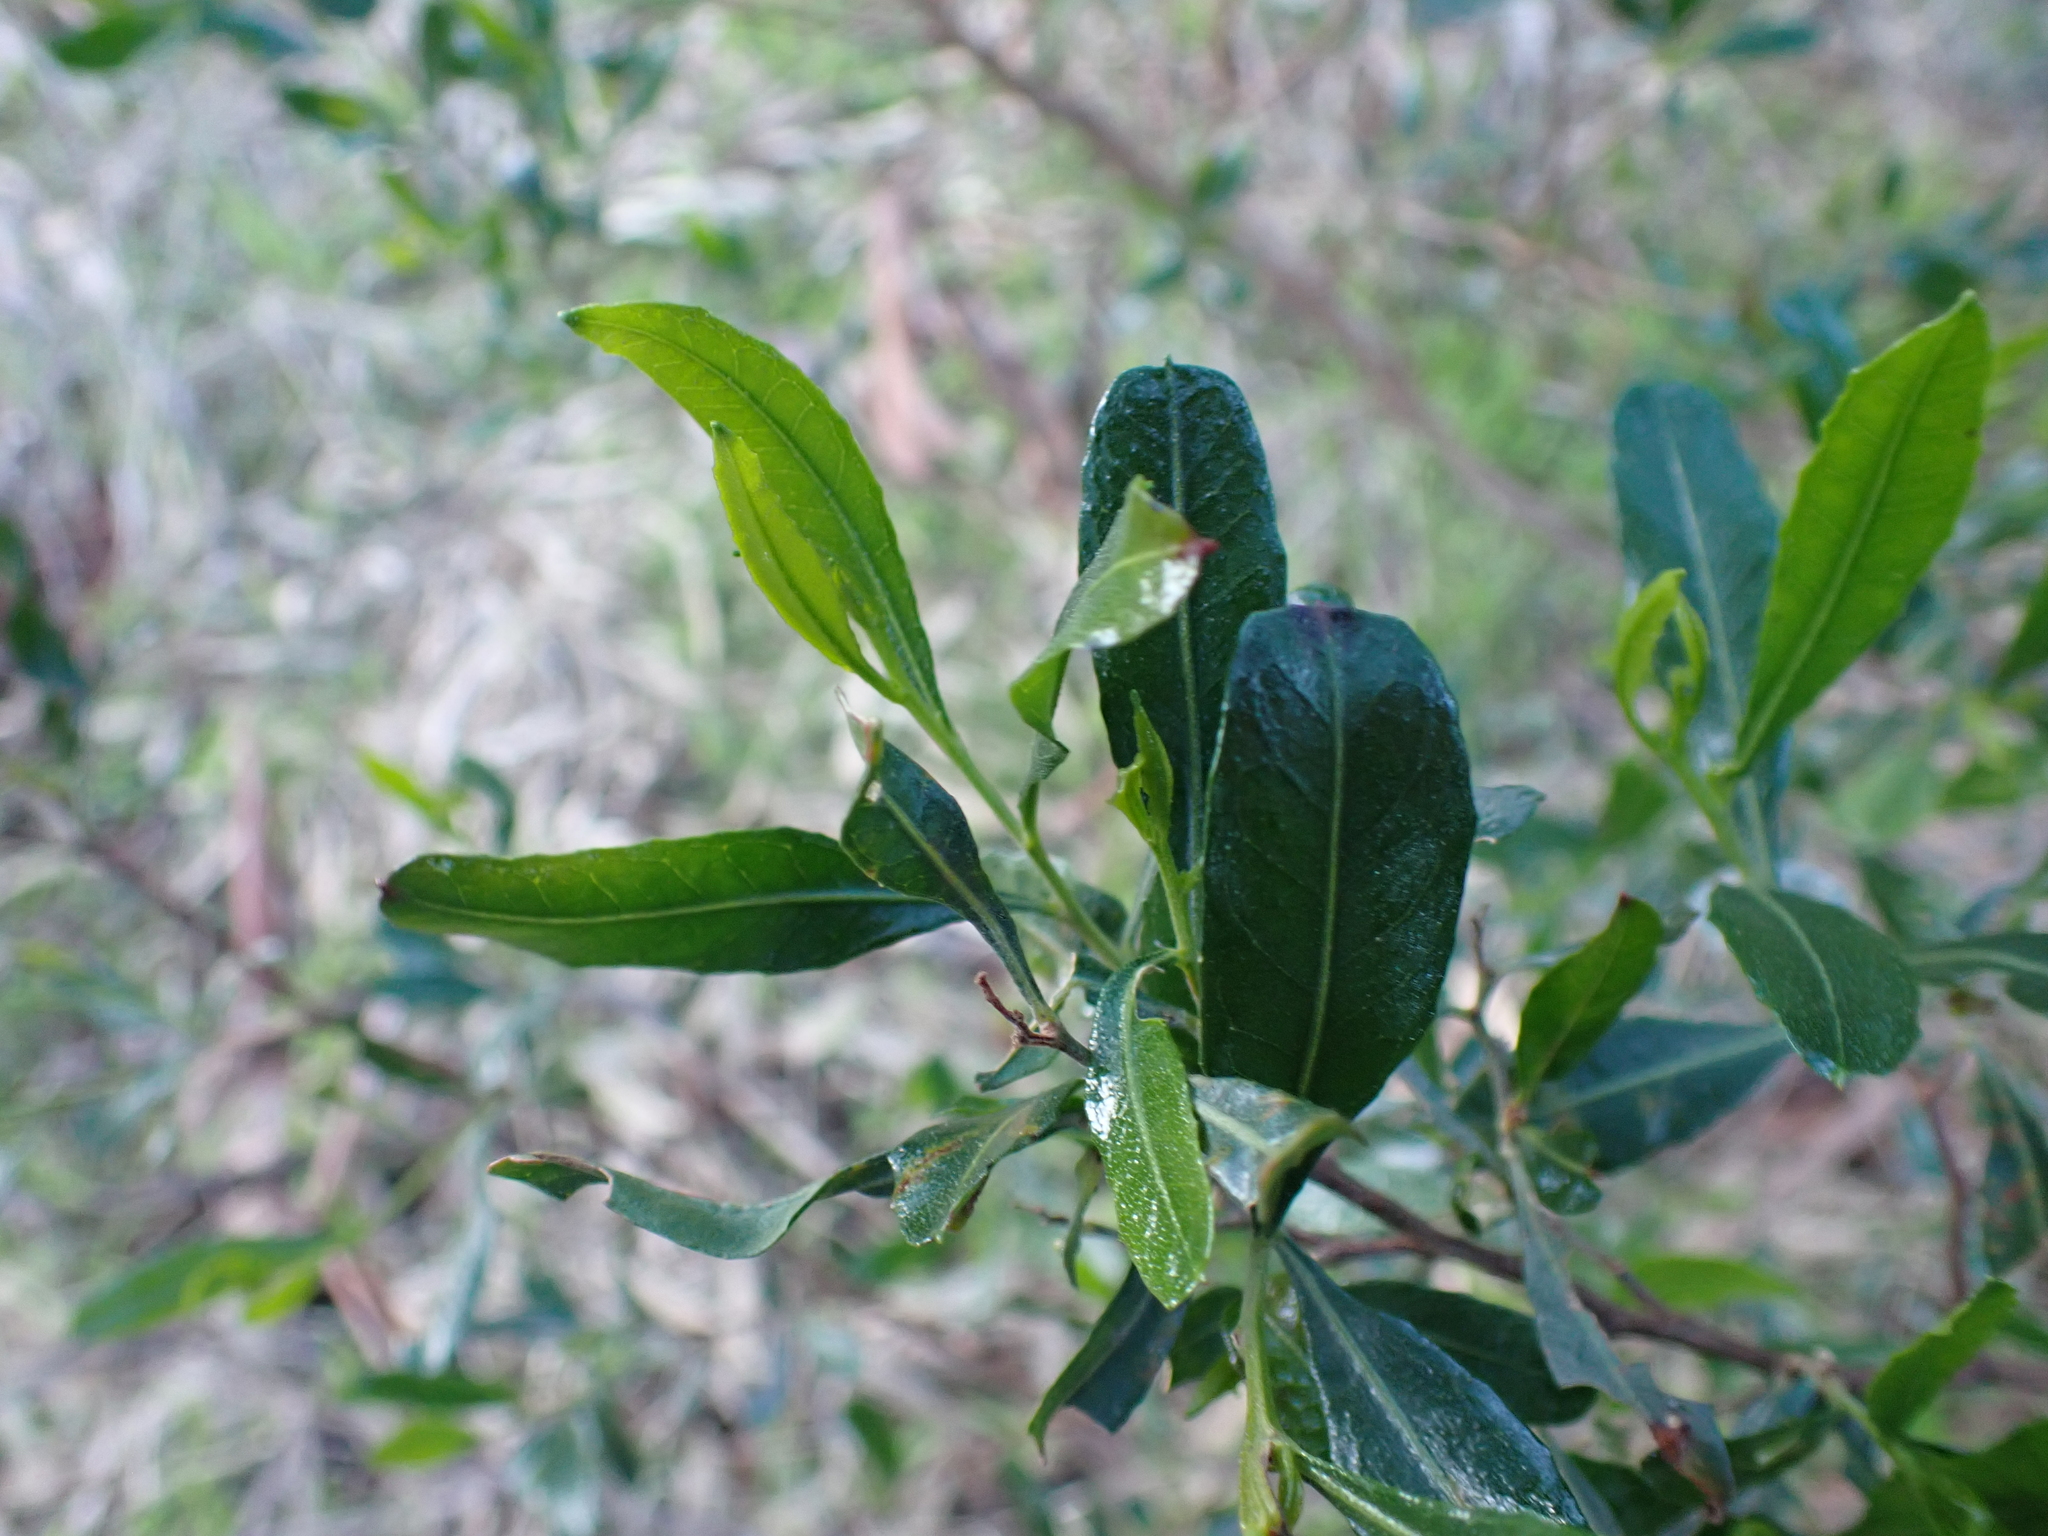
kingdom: Plantae
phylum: Tracheophyta
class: Magnoliopsida
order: Sapindales
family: Sapindaceae
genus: Dodonaea
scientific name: Dodonaea viscosa
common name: Hopbush
